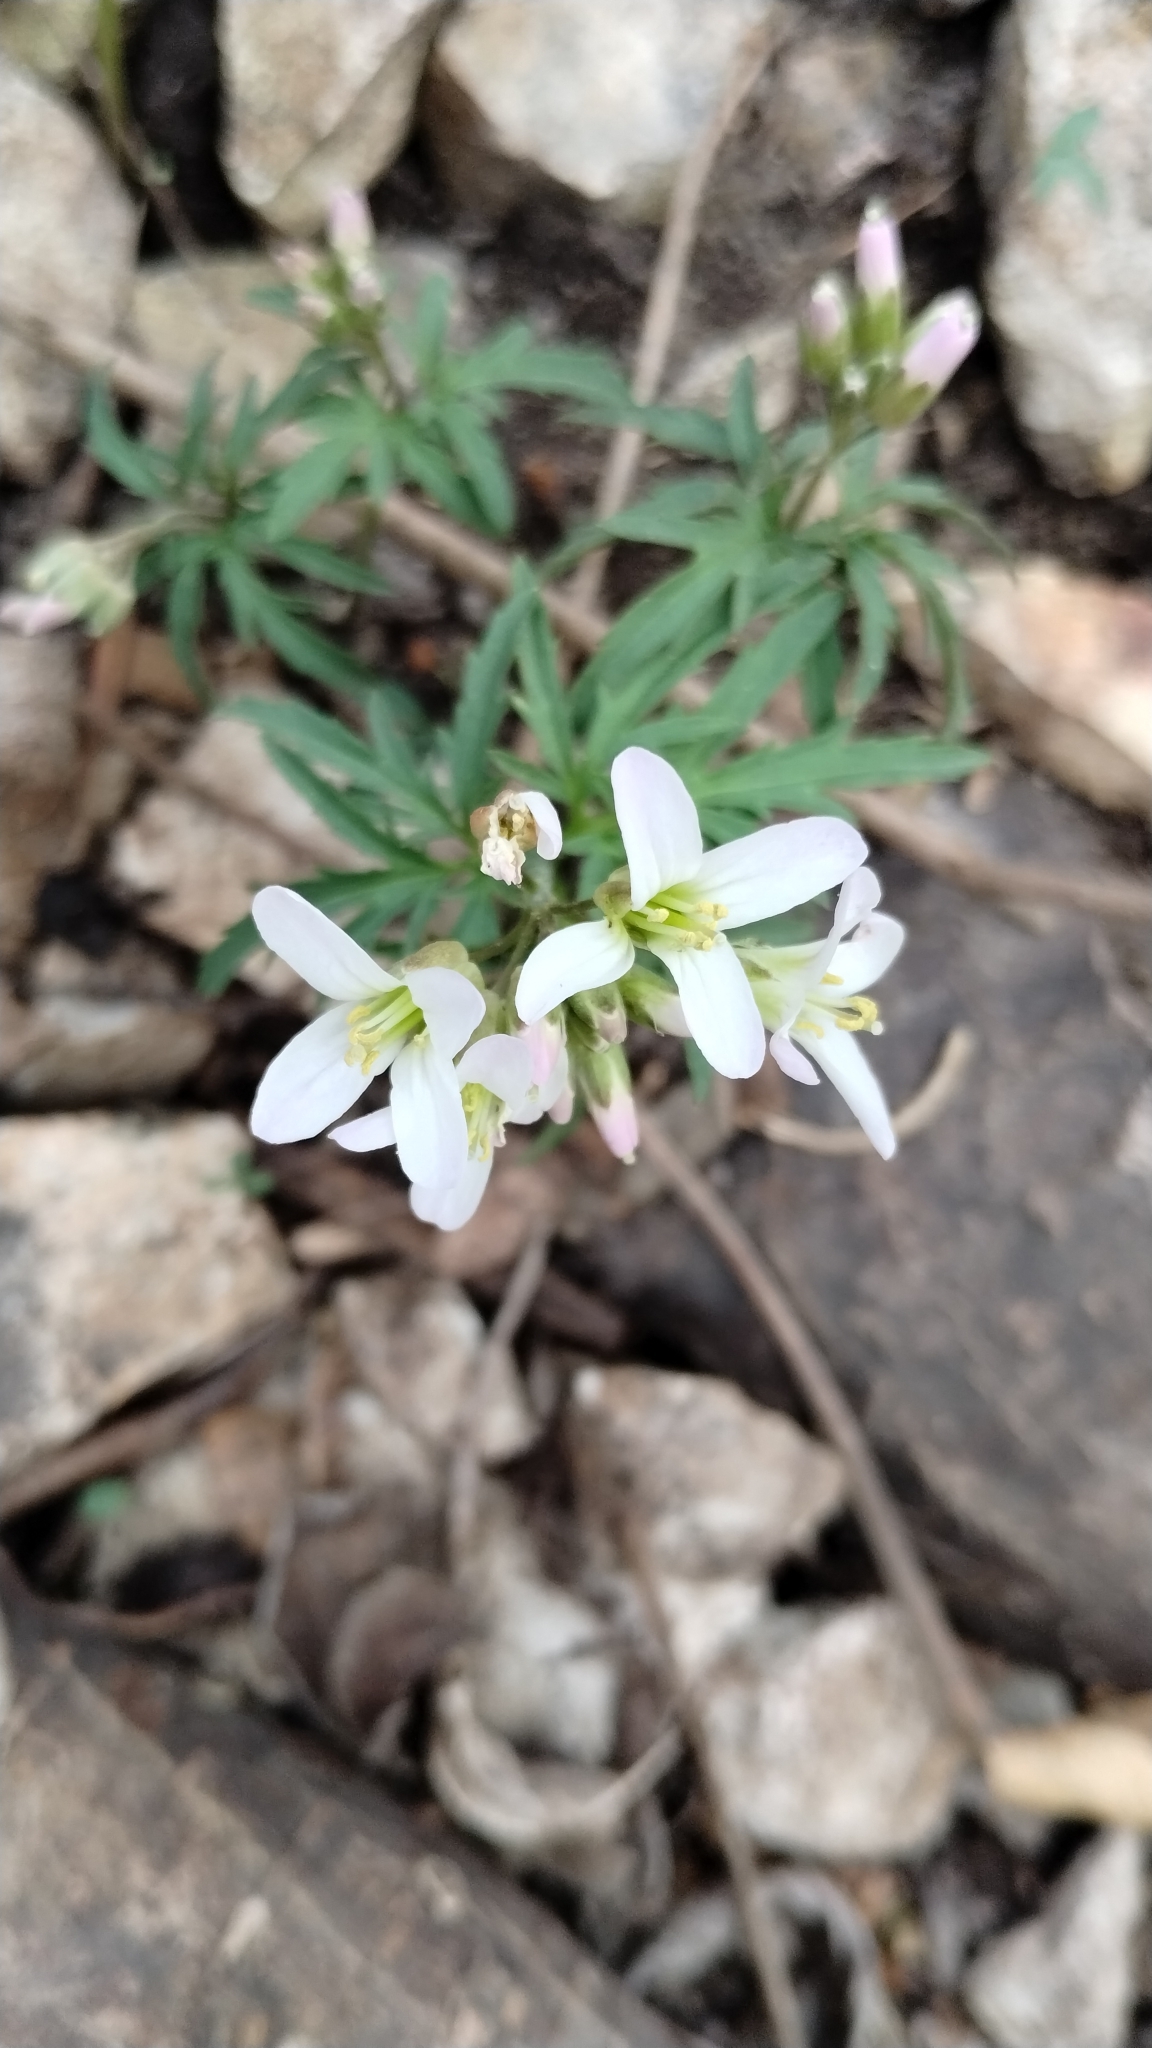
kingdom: Plantae
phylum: Tracheophyta
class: Magnoliopsida
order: Brassicales
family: Brassicaceae
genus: Cardamine
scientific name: Cardamine concatenata
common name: Cut-leaf toothcup
